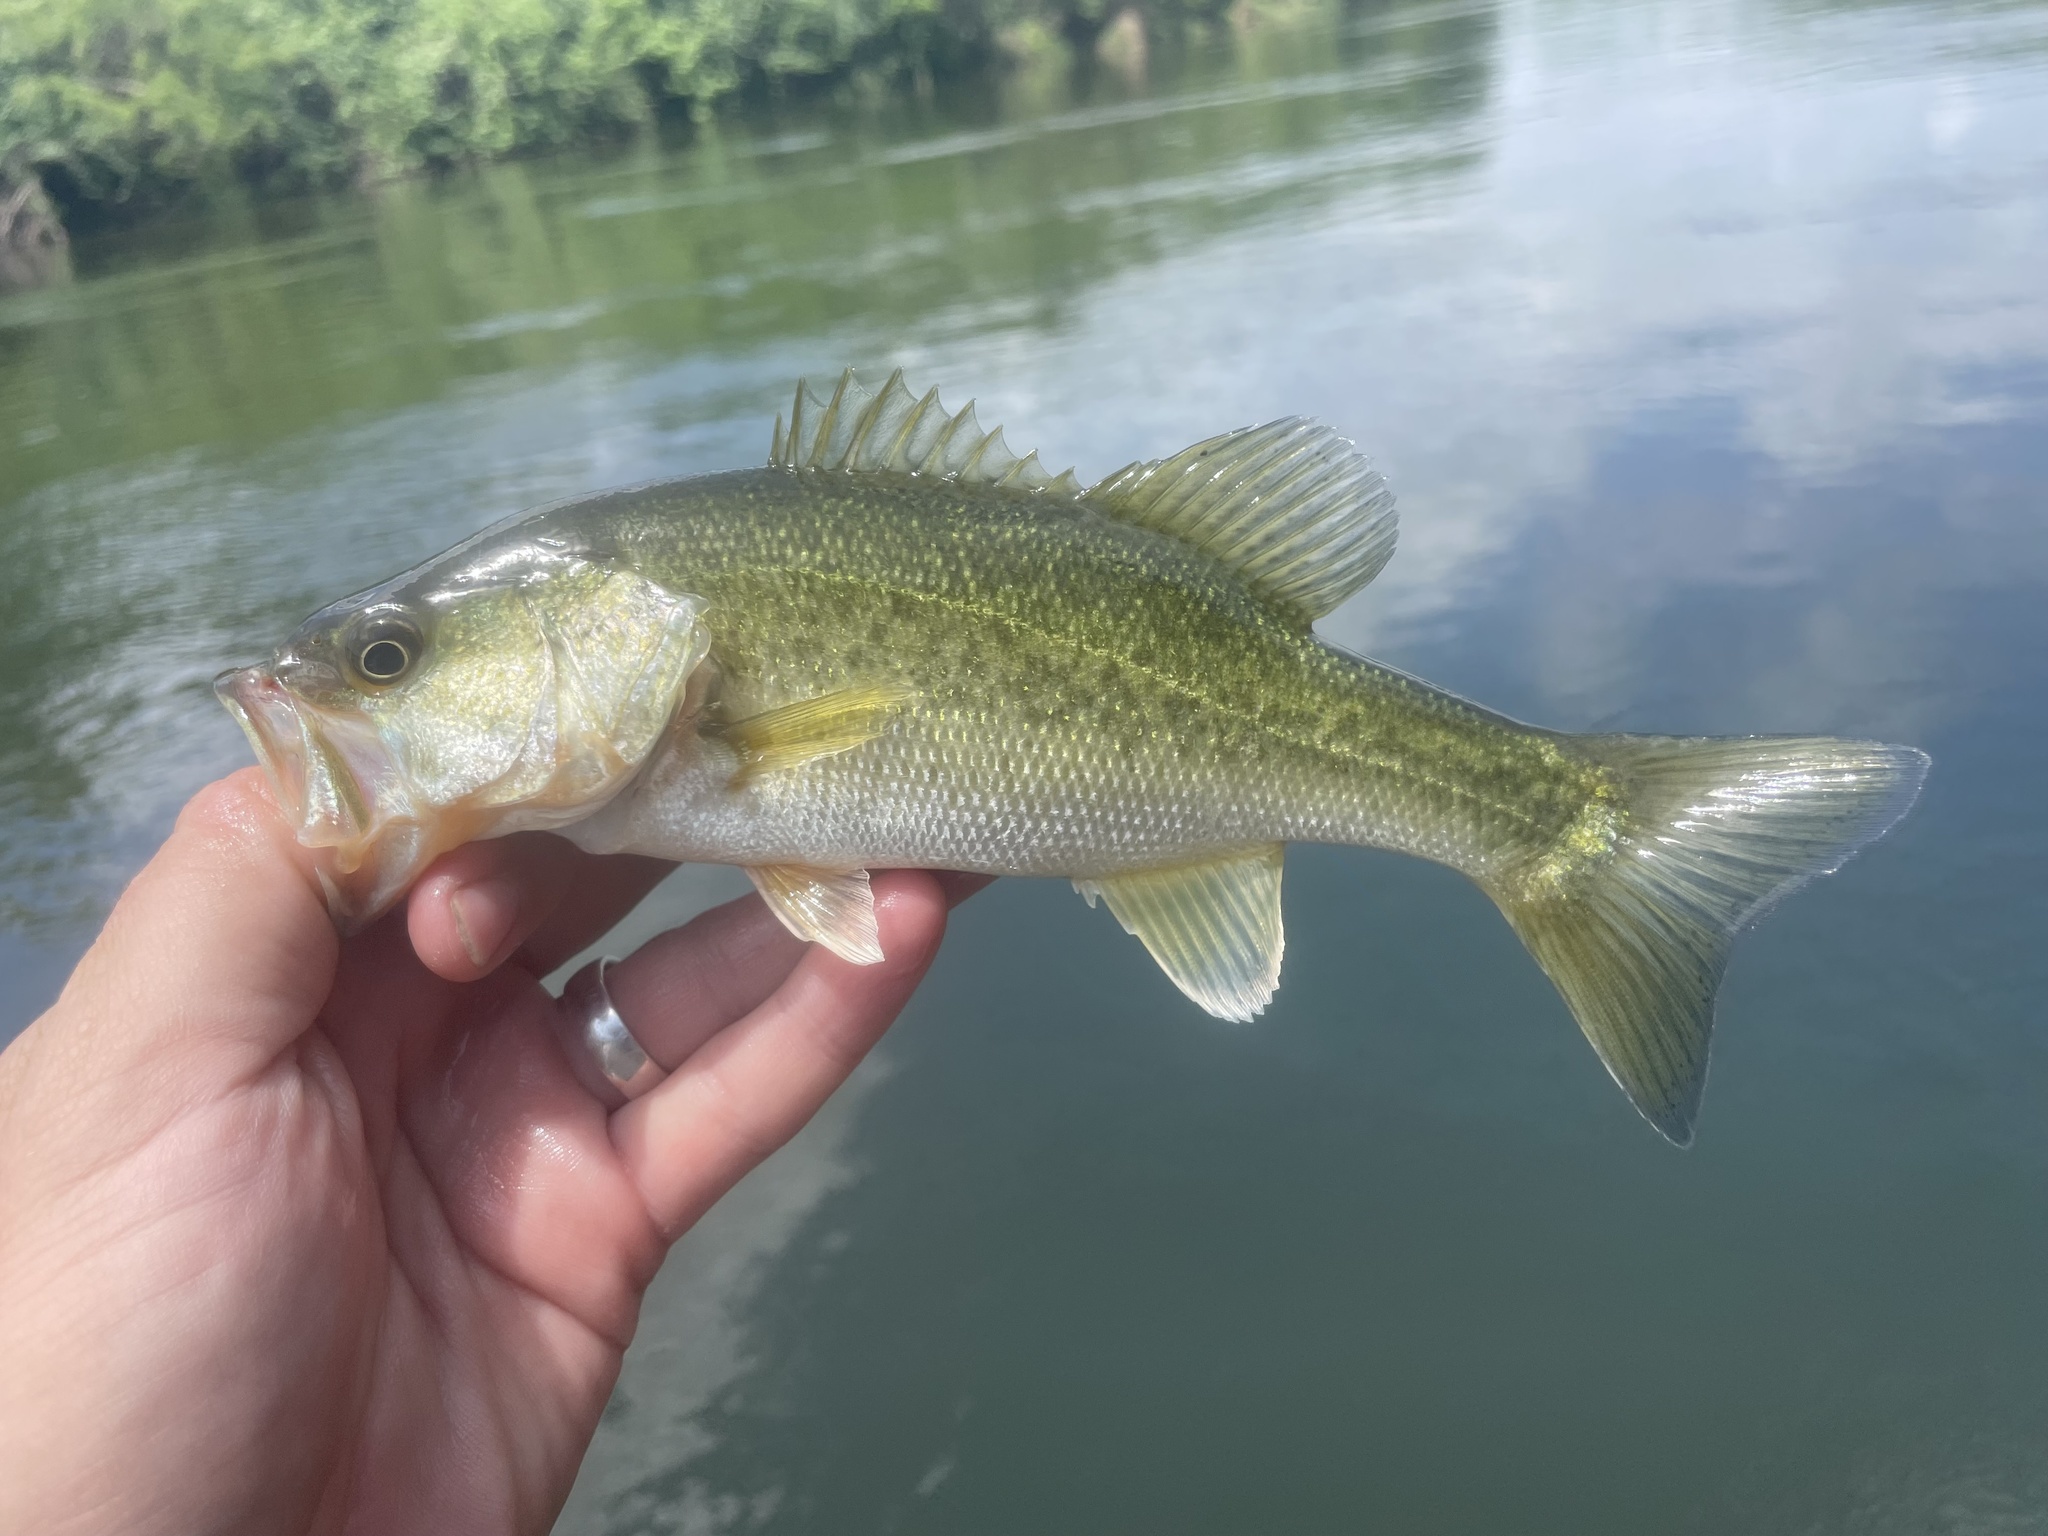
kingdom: Animalia
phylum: Chordata
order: Perciformes
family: Centrarchidae
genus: Micropterus
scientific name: Micropterus
